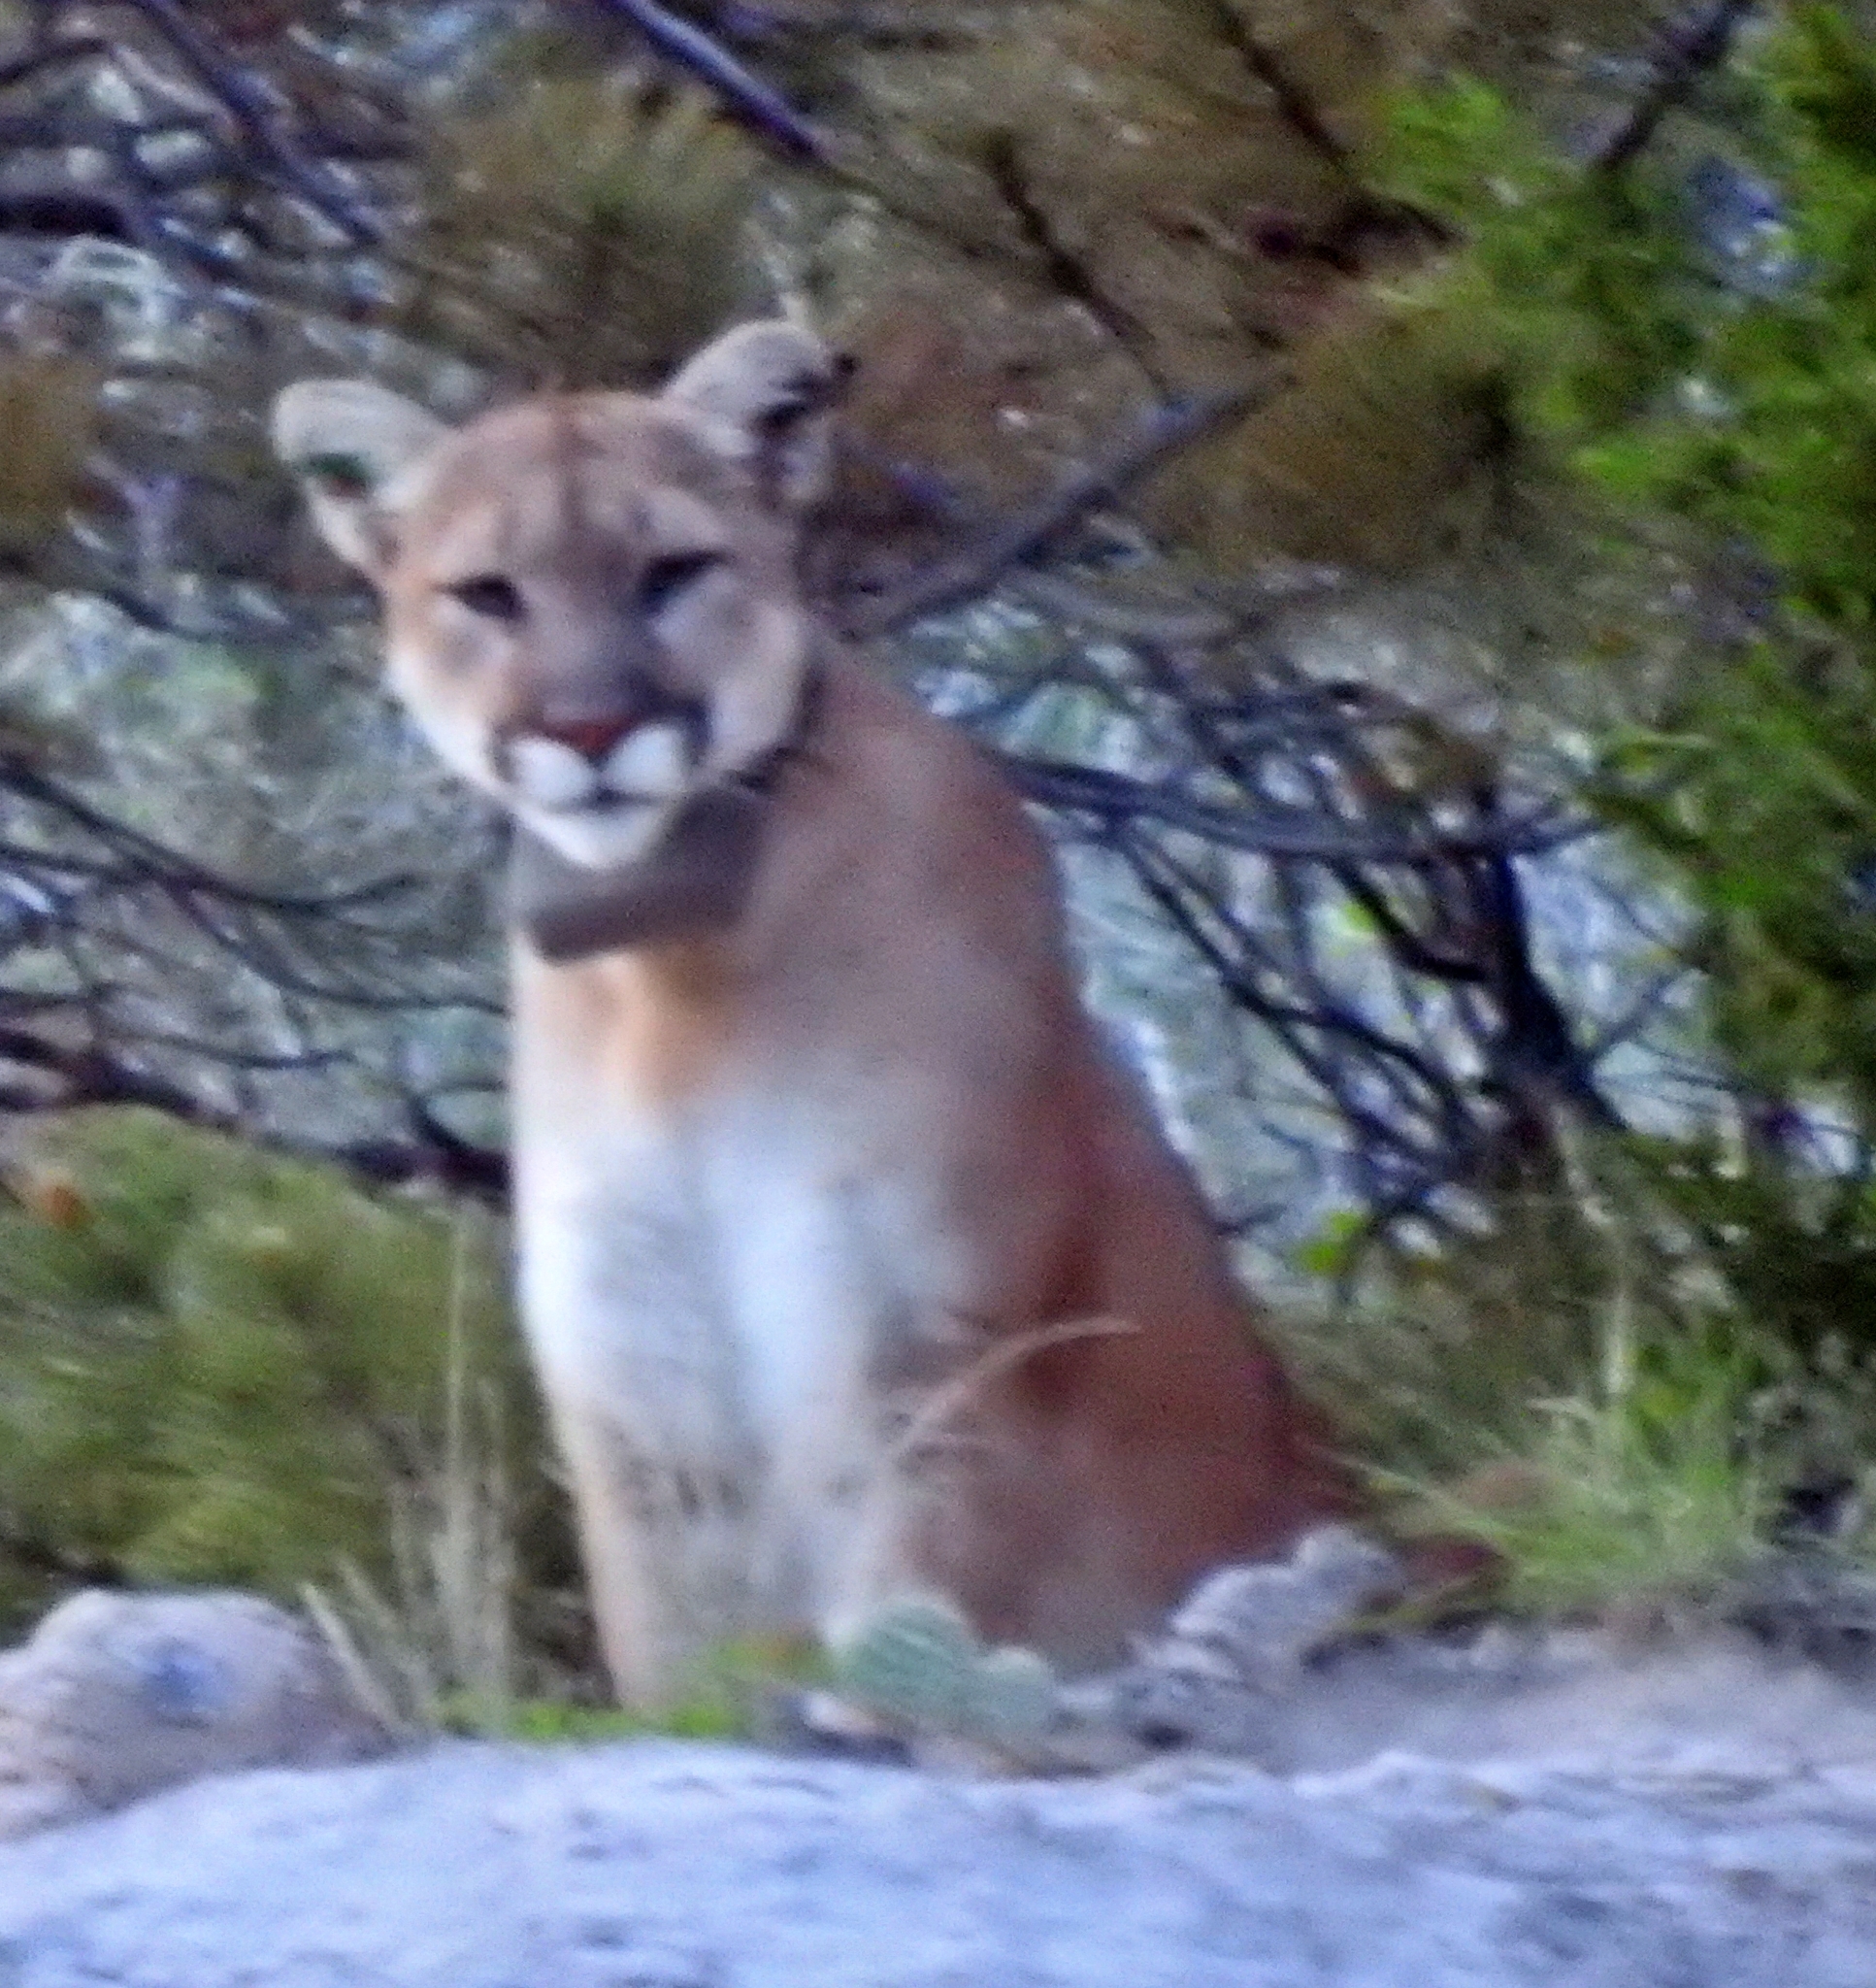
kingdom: Animalia
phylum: Chordata
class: Mammalia
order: Carnivora
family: Felidae
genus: Puma
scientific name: Puma concolor
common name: Puma
